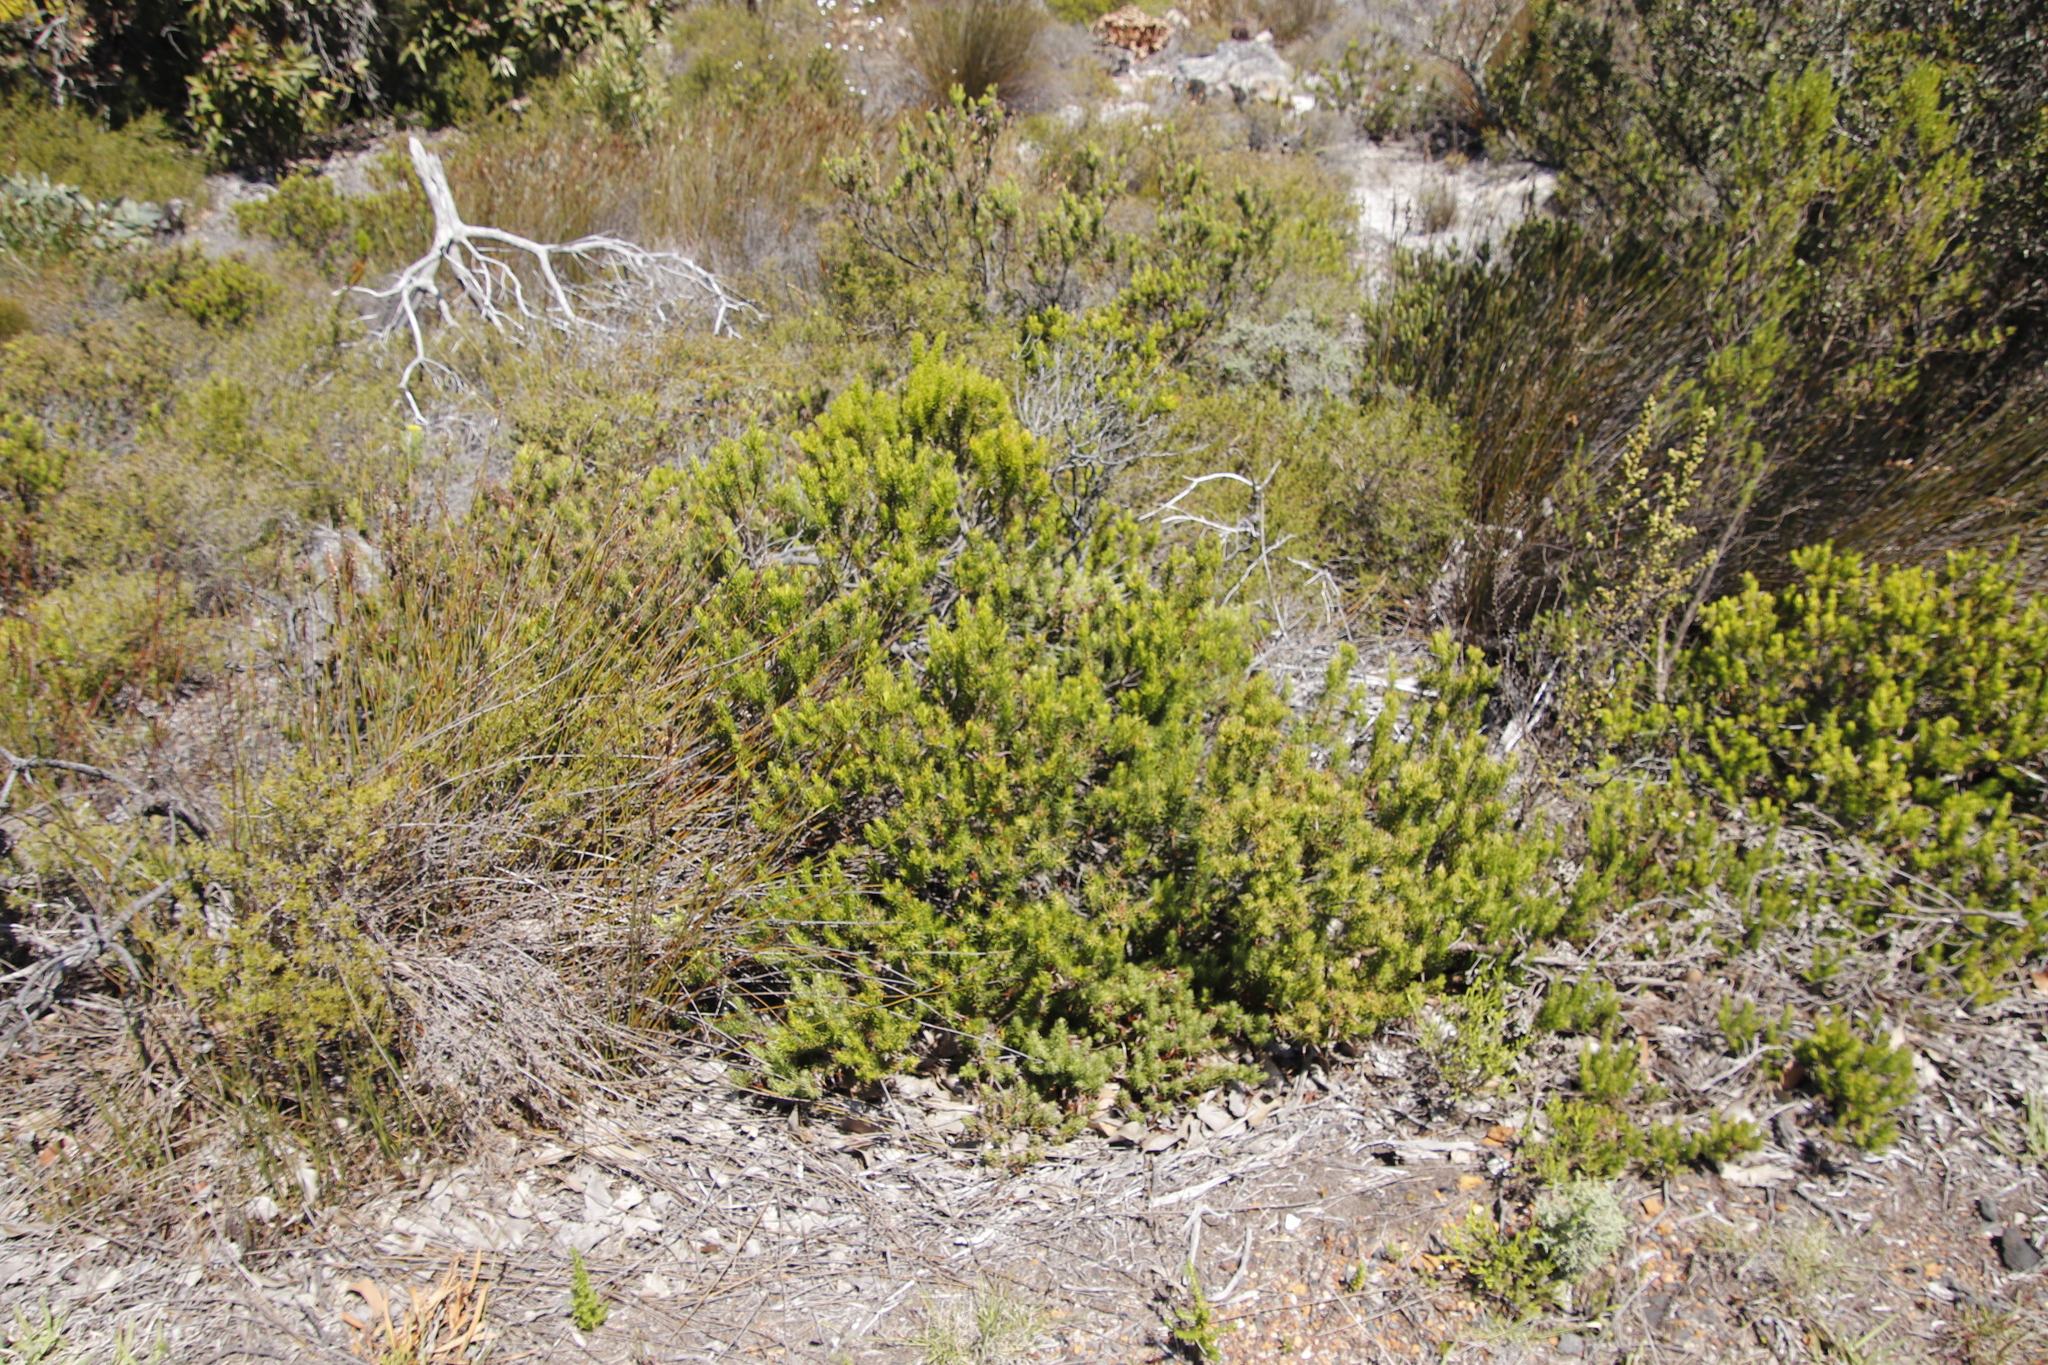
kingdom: Plantae
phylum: Tracheophyta
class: Magnoliopsida
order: Ericales
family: Ericaceae
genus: Erica
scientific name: Erica plukenetii
